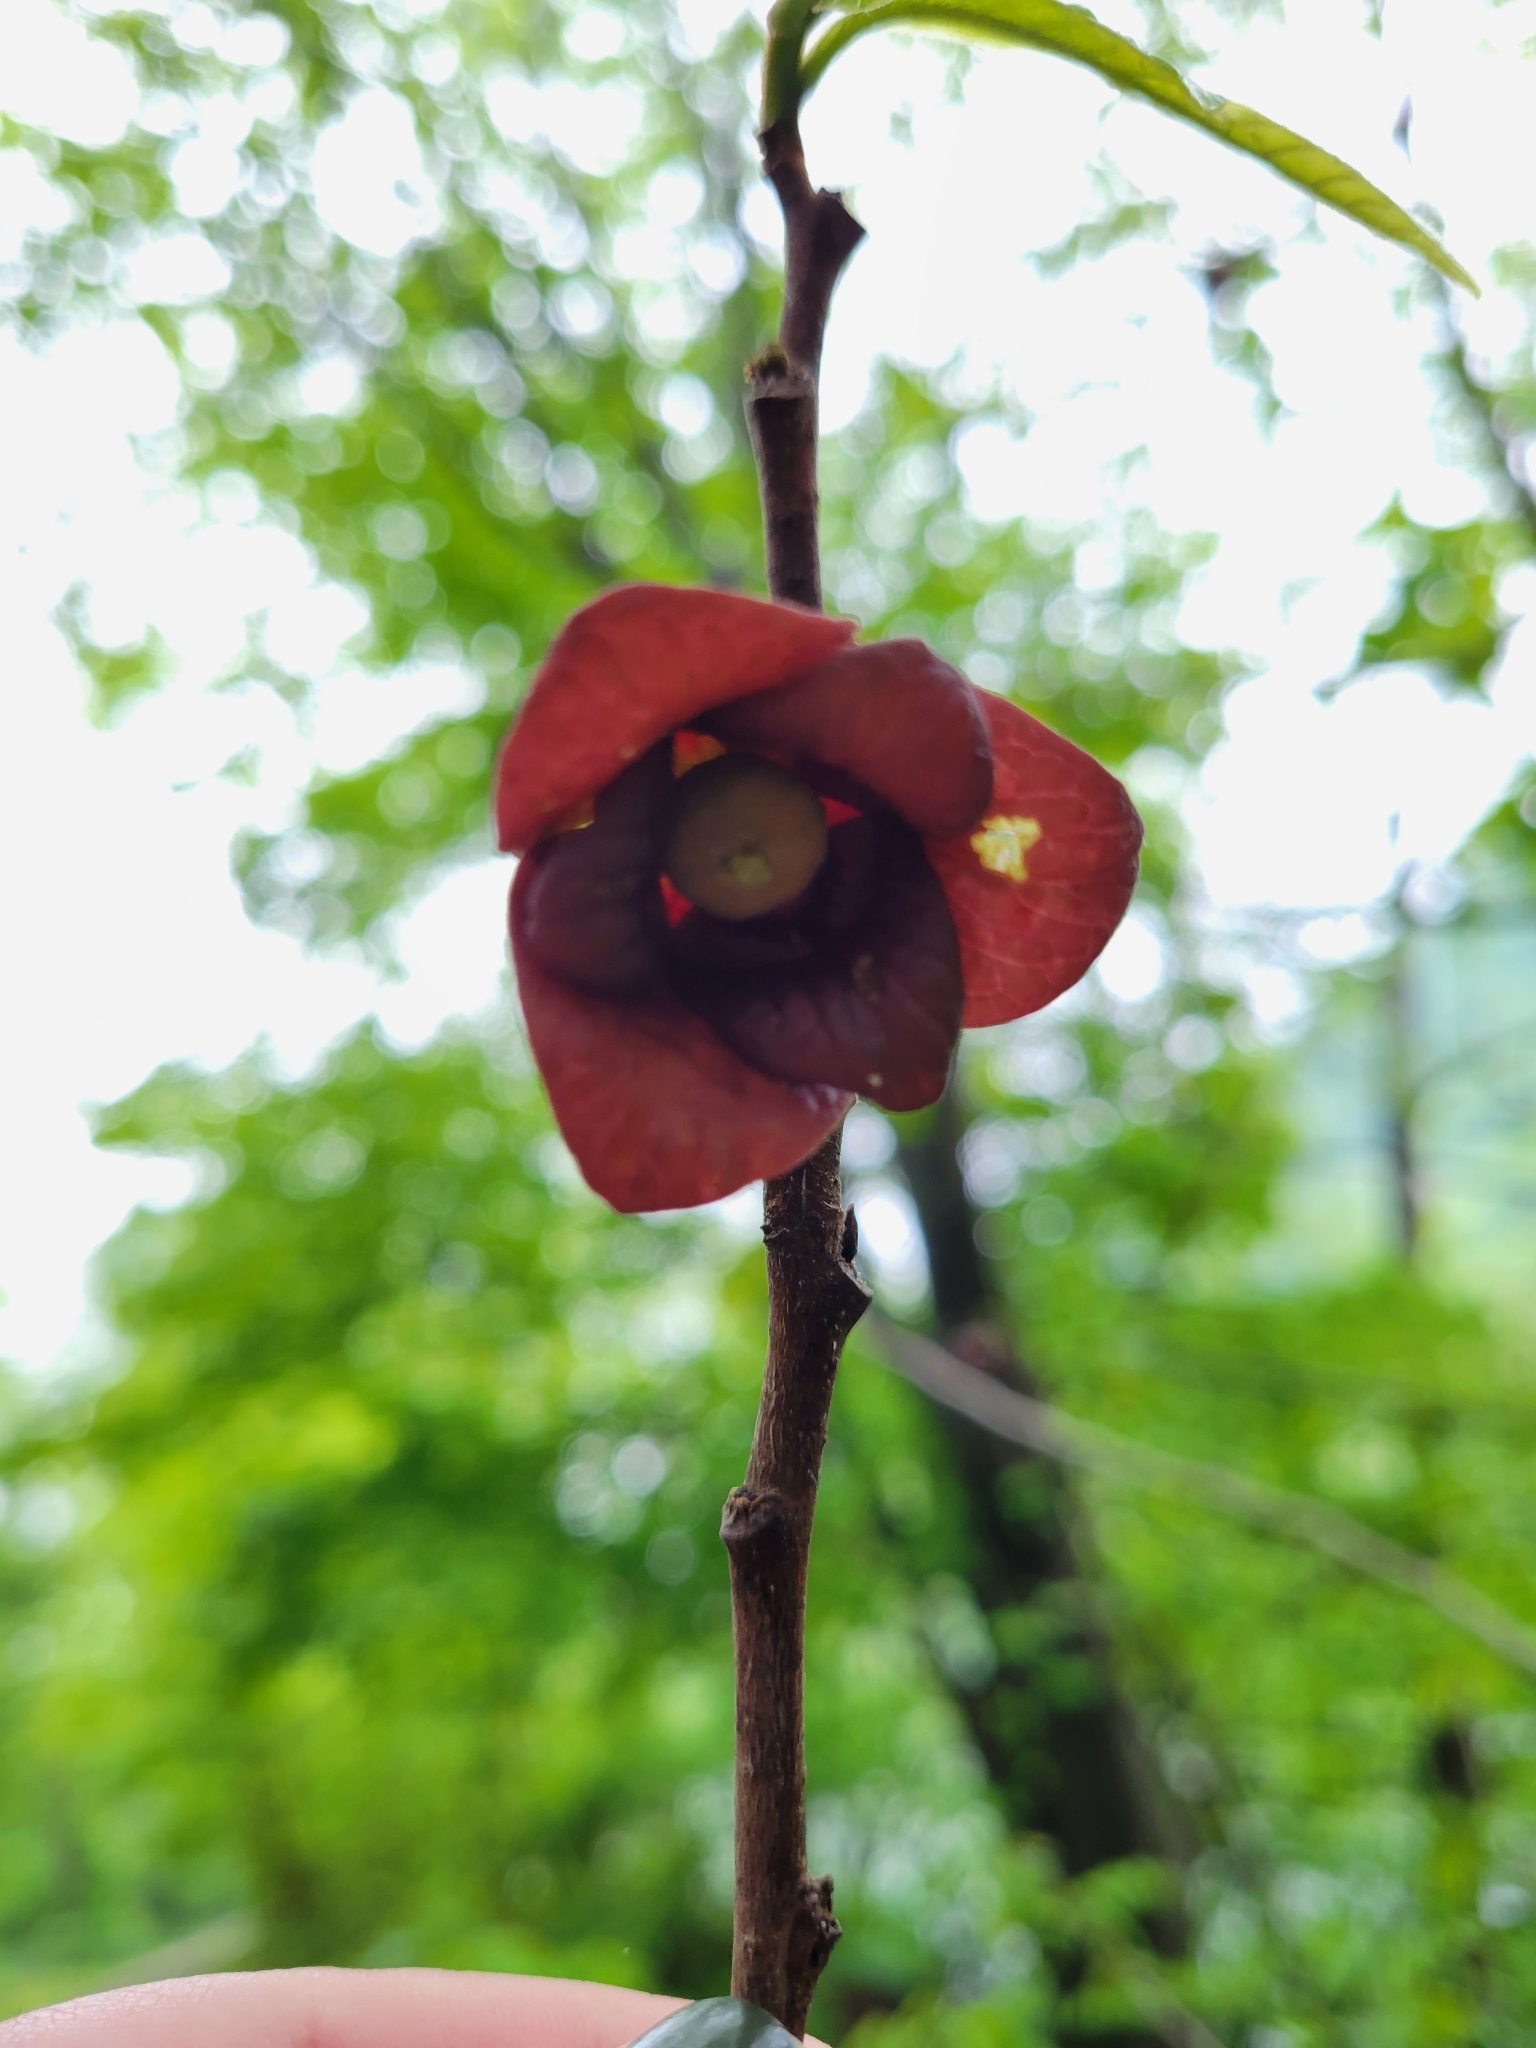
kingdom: Plantae
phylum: Tracheophyta
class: Magnoliopsida
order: Magnoliales
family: Annonaceae
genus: Asimina
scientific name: Asimina triloba
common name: Dog-banana
